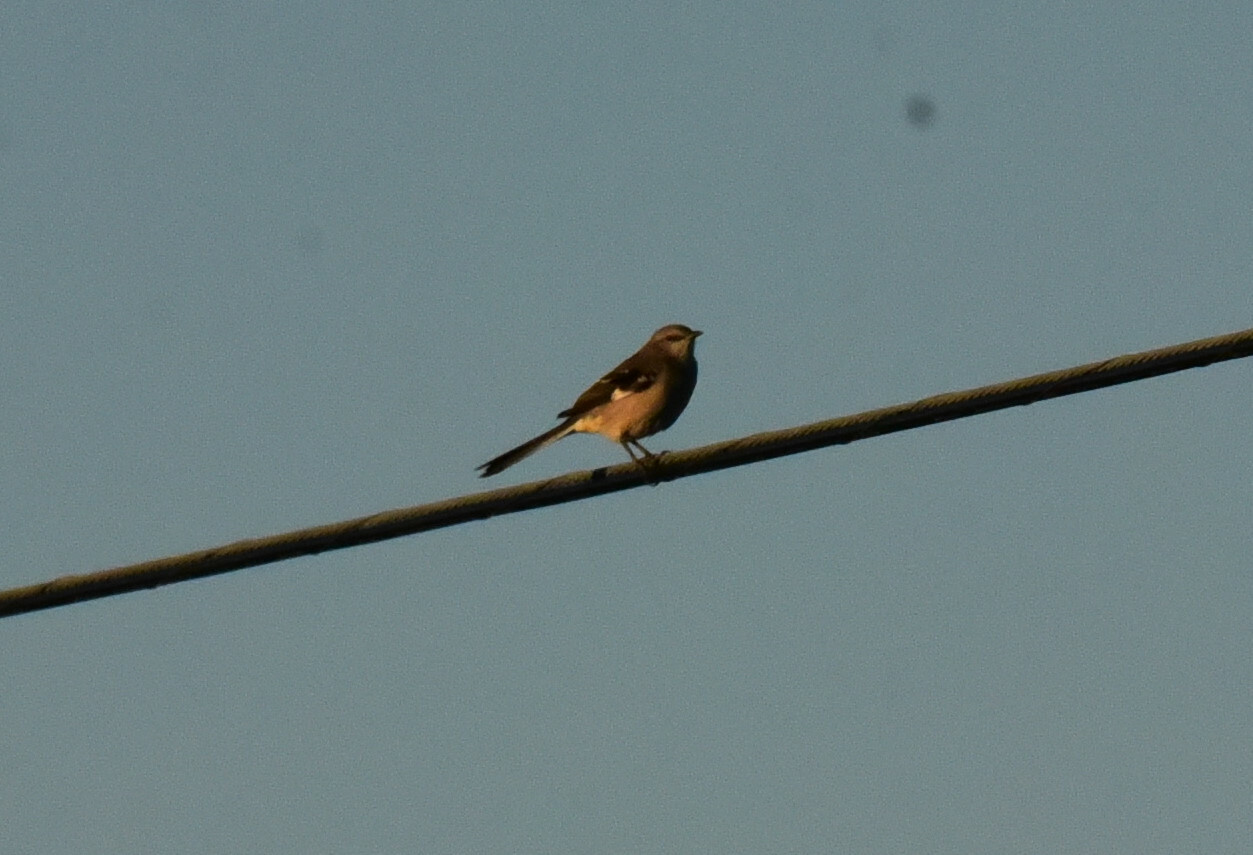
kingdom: Animalia
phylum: Chordata
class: Aves
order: Passeriformes
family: Mimidae
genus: Mimus
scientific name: Mimus polyglottos
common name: Northern mockingbird
